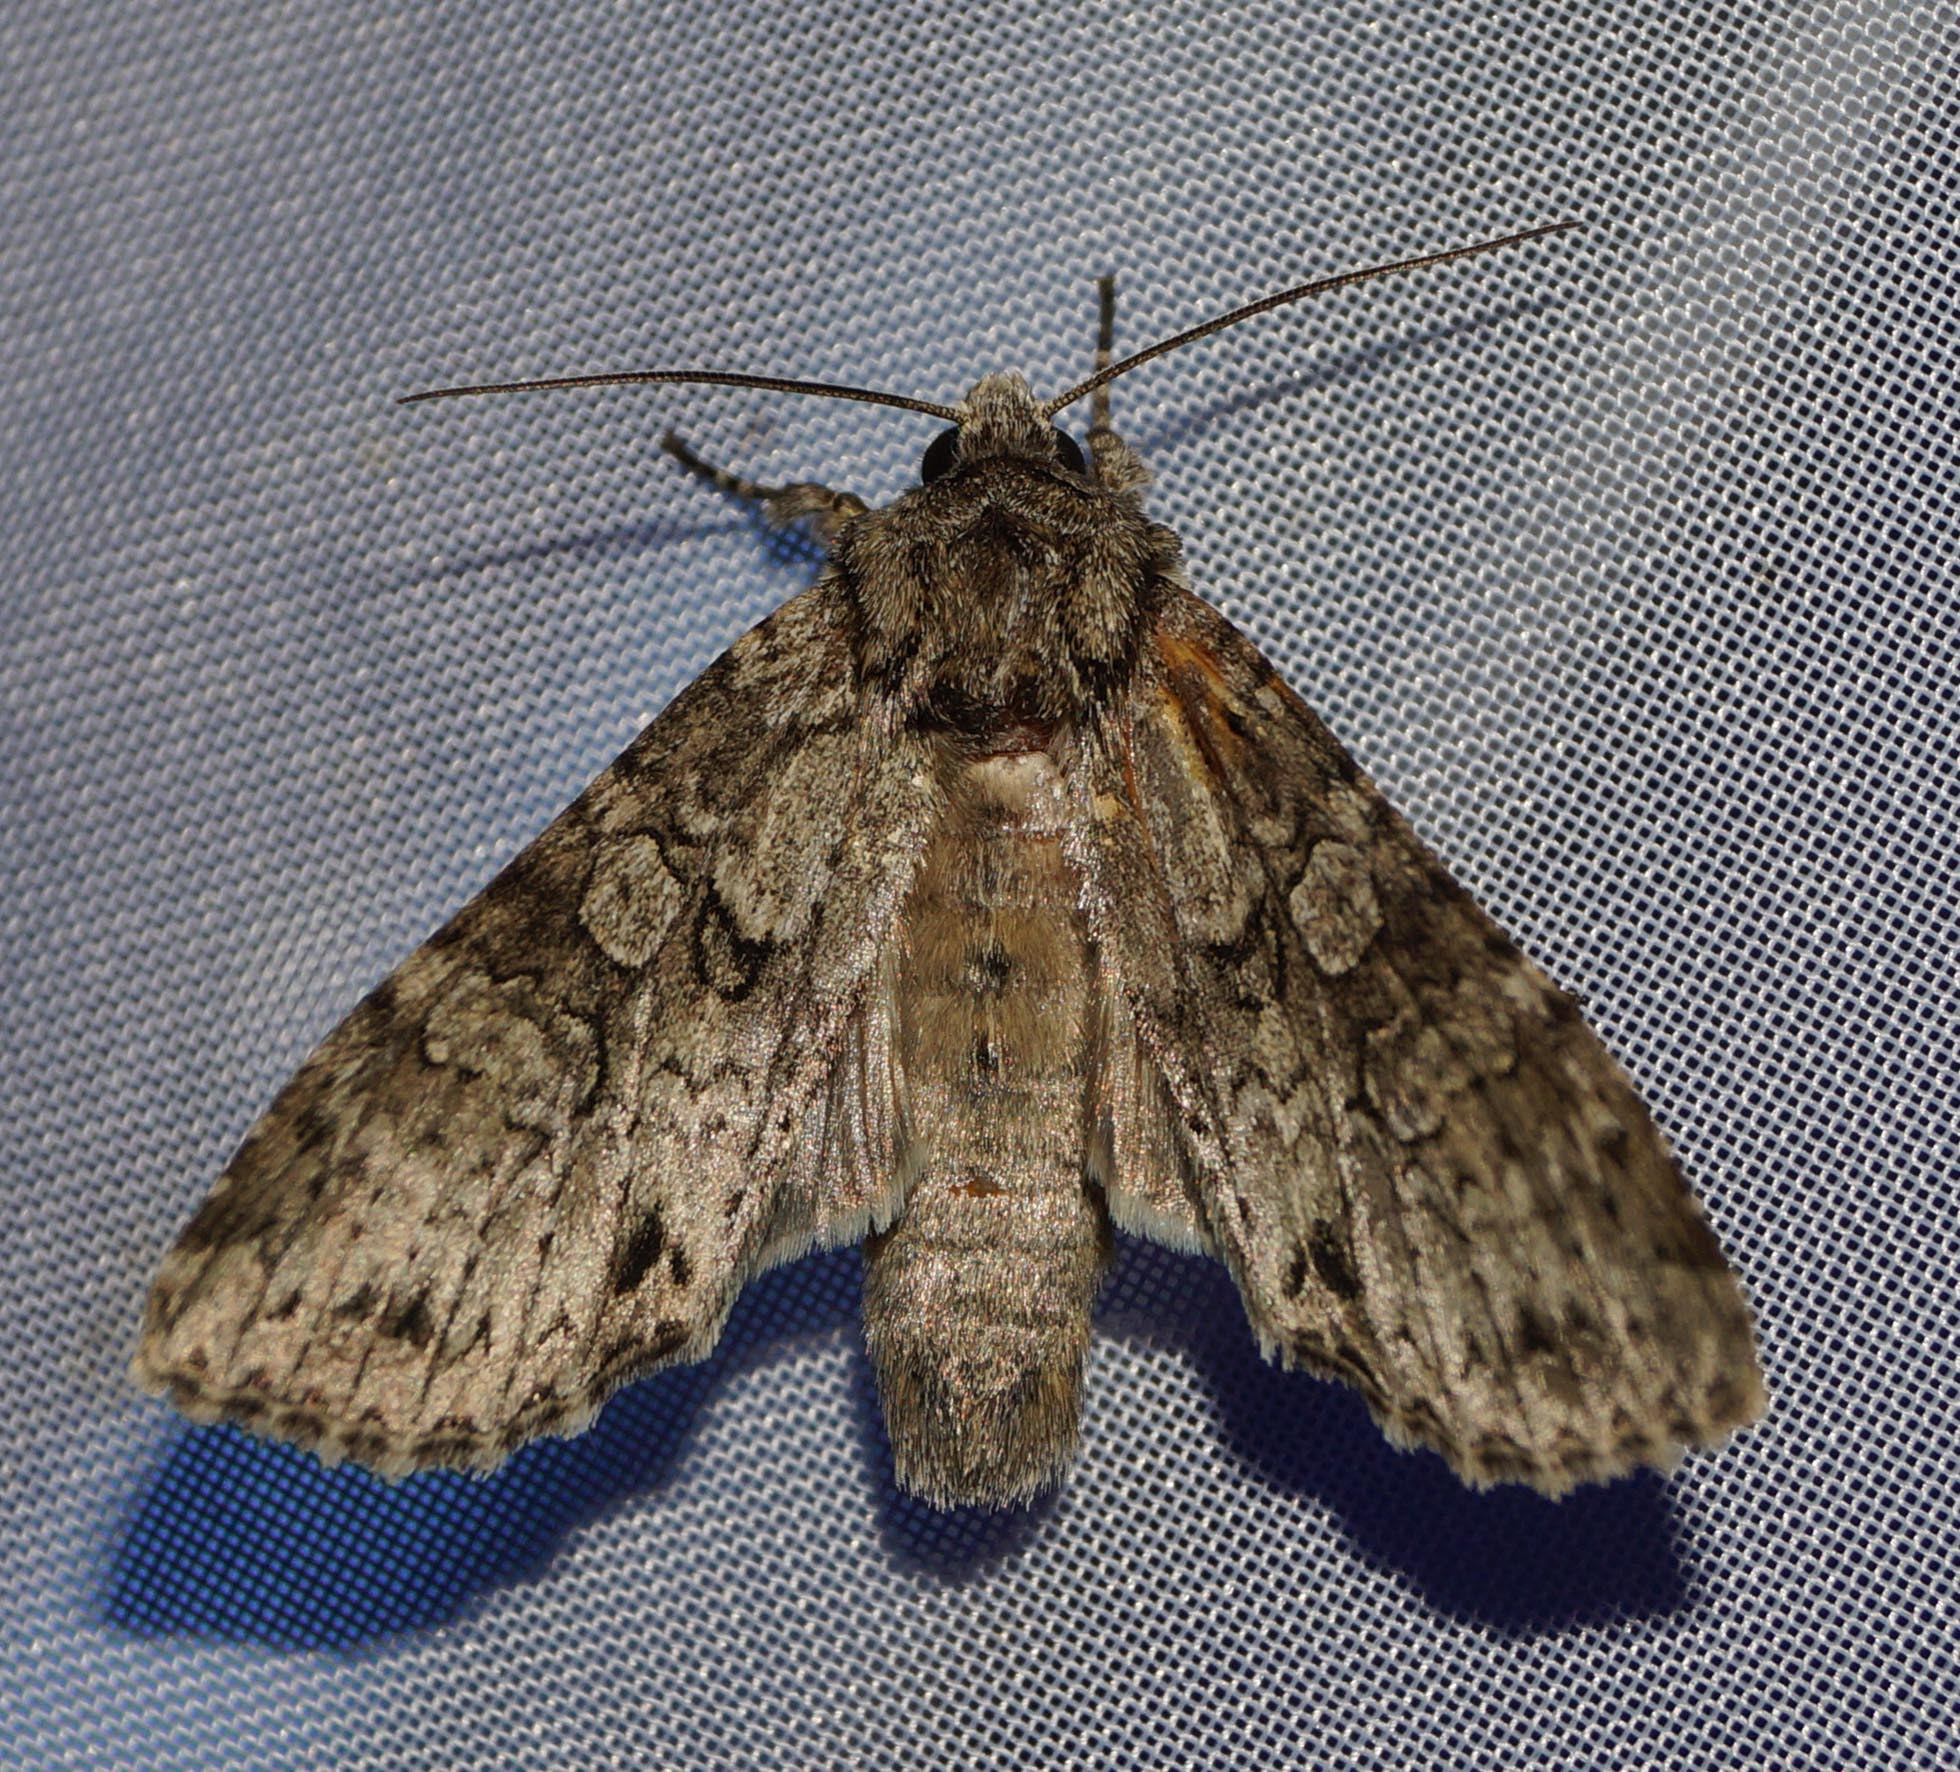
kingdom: Animalia
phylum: Arthropoda
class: Insecta
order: Lepidoptera
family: Noctuidae
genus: Polia
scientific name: Polia nebulosa
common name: Grey arches
